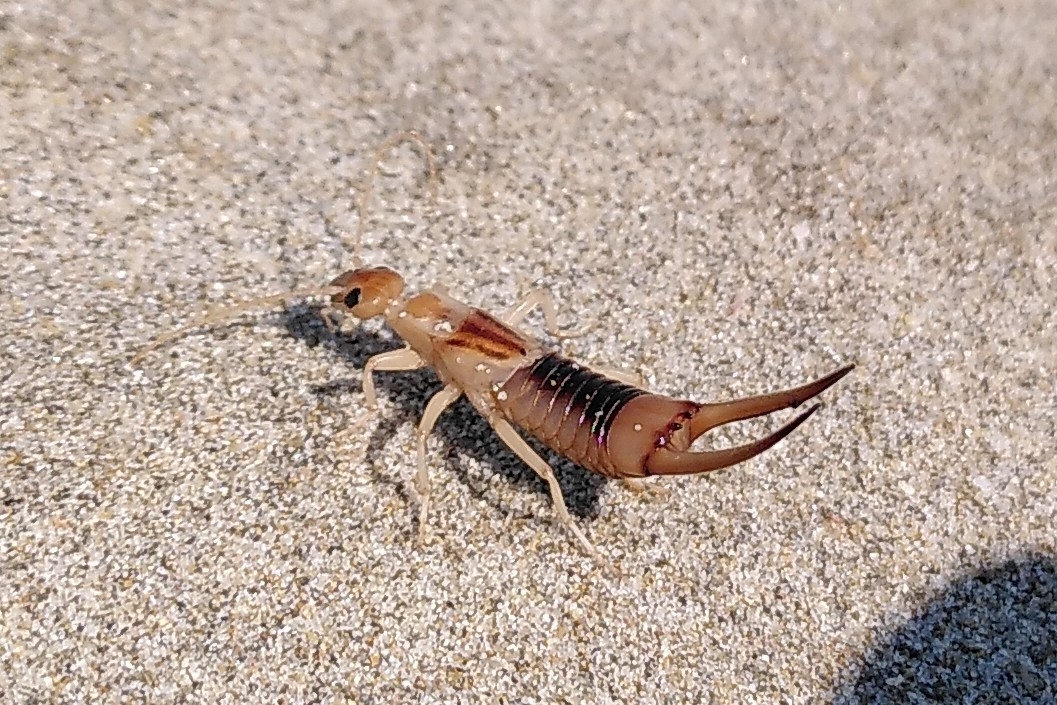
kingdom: Animalia
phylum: Arthropoda
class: Insecta
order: Dermaptera
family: Labiduridae
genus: Labidura
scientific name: Labidura riparia
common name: Striped earwig
